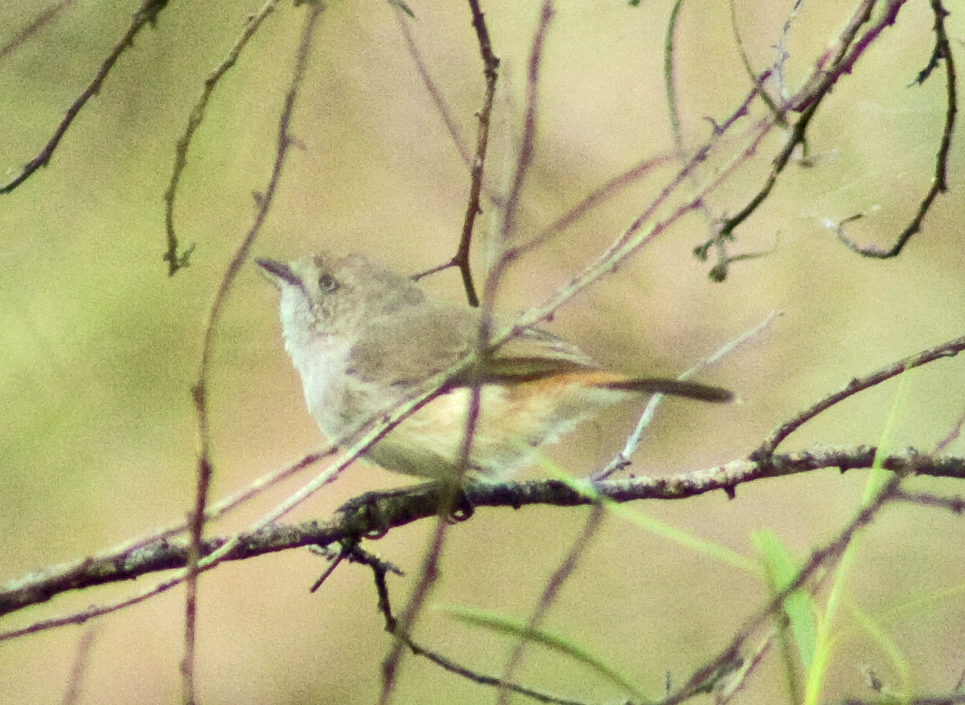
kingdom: Animalia
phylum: Chordata
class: Aves
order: Passeriformes
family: Acanthizidae
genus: Acanthiza
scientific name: Acanthiza uropygialis
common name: Chestnut-rumped thornbill
